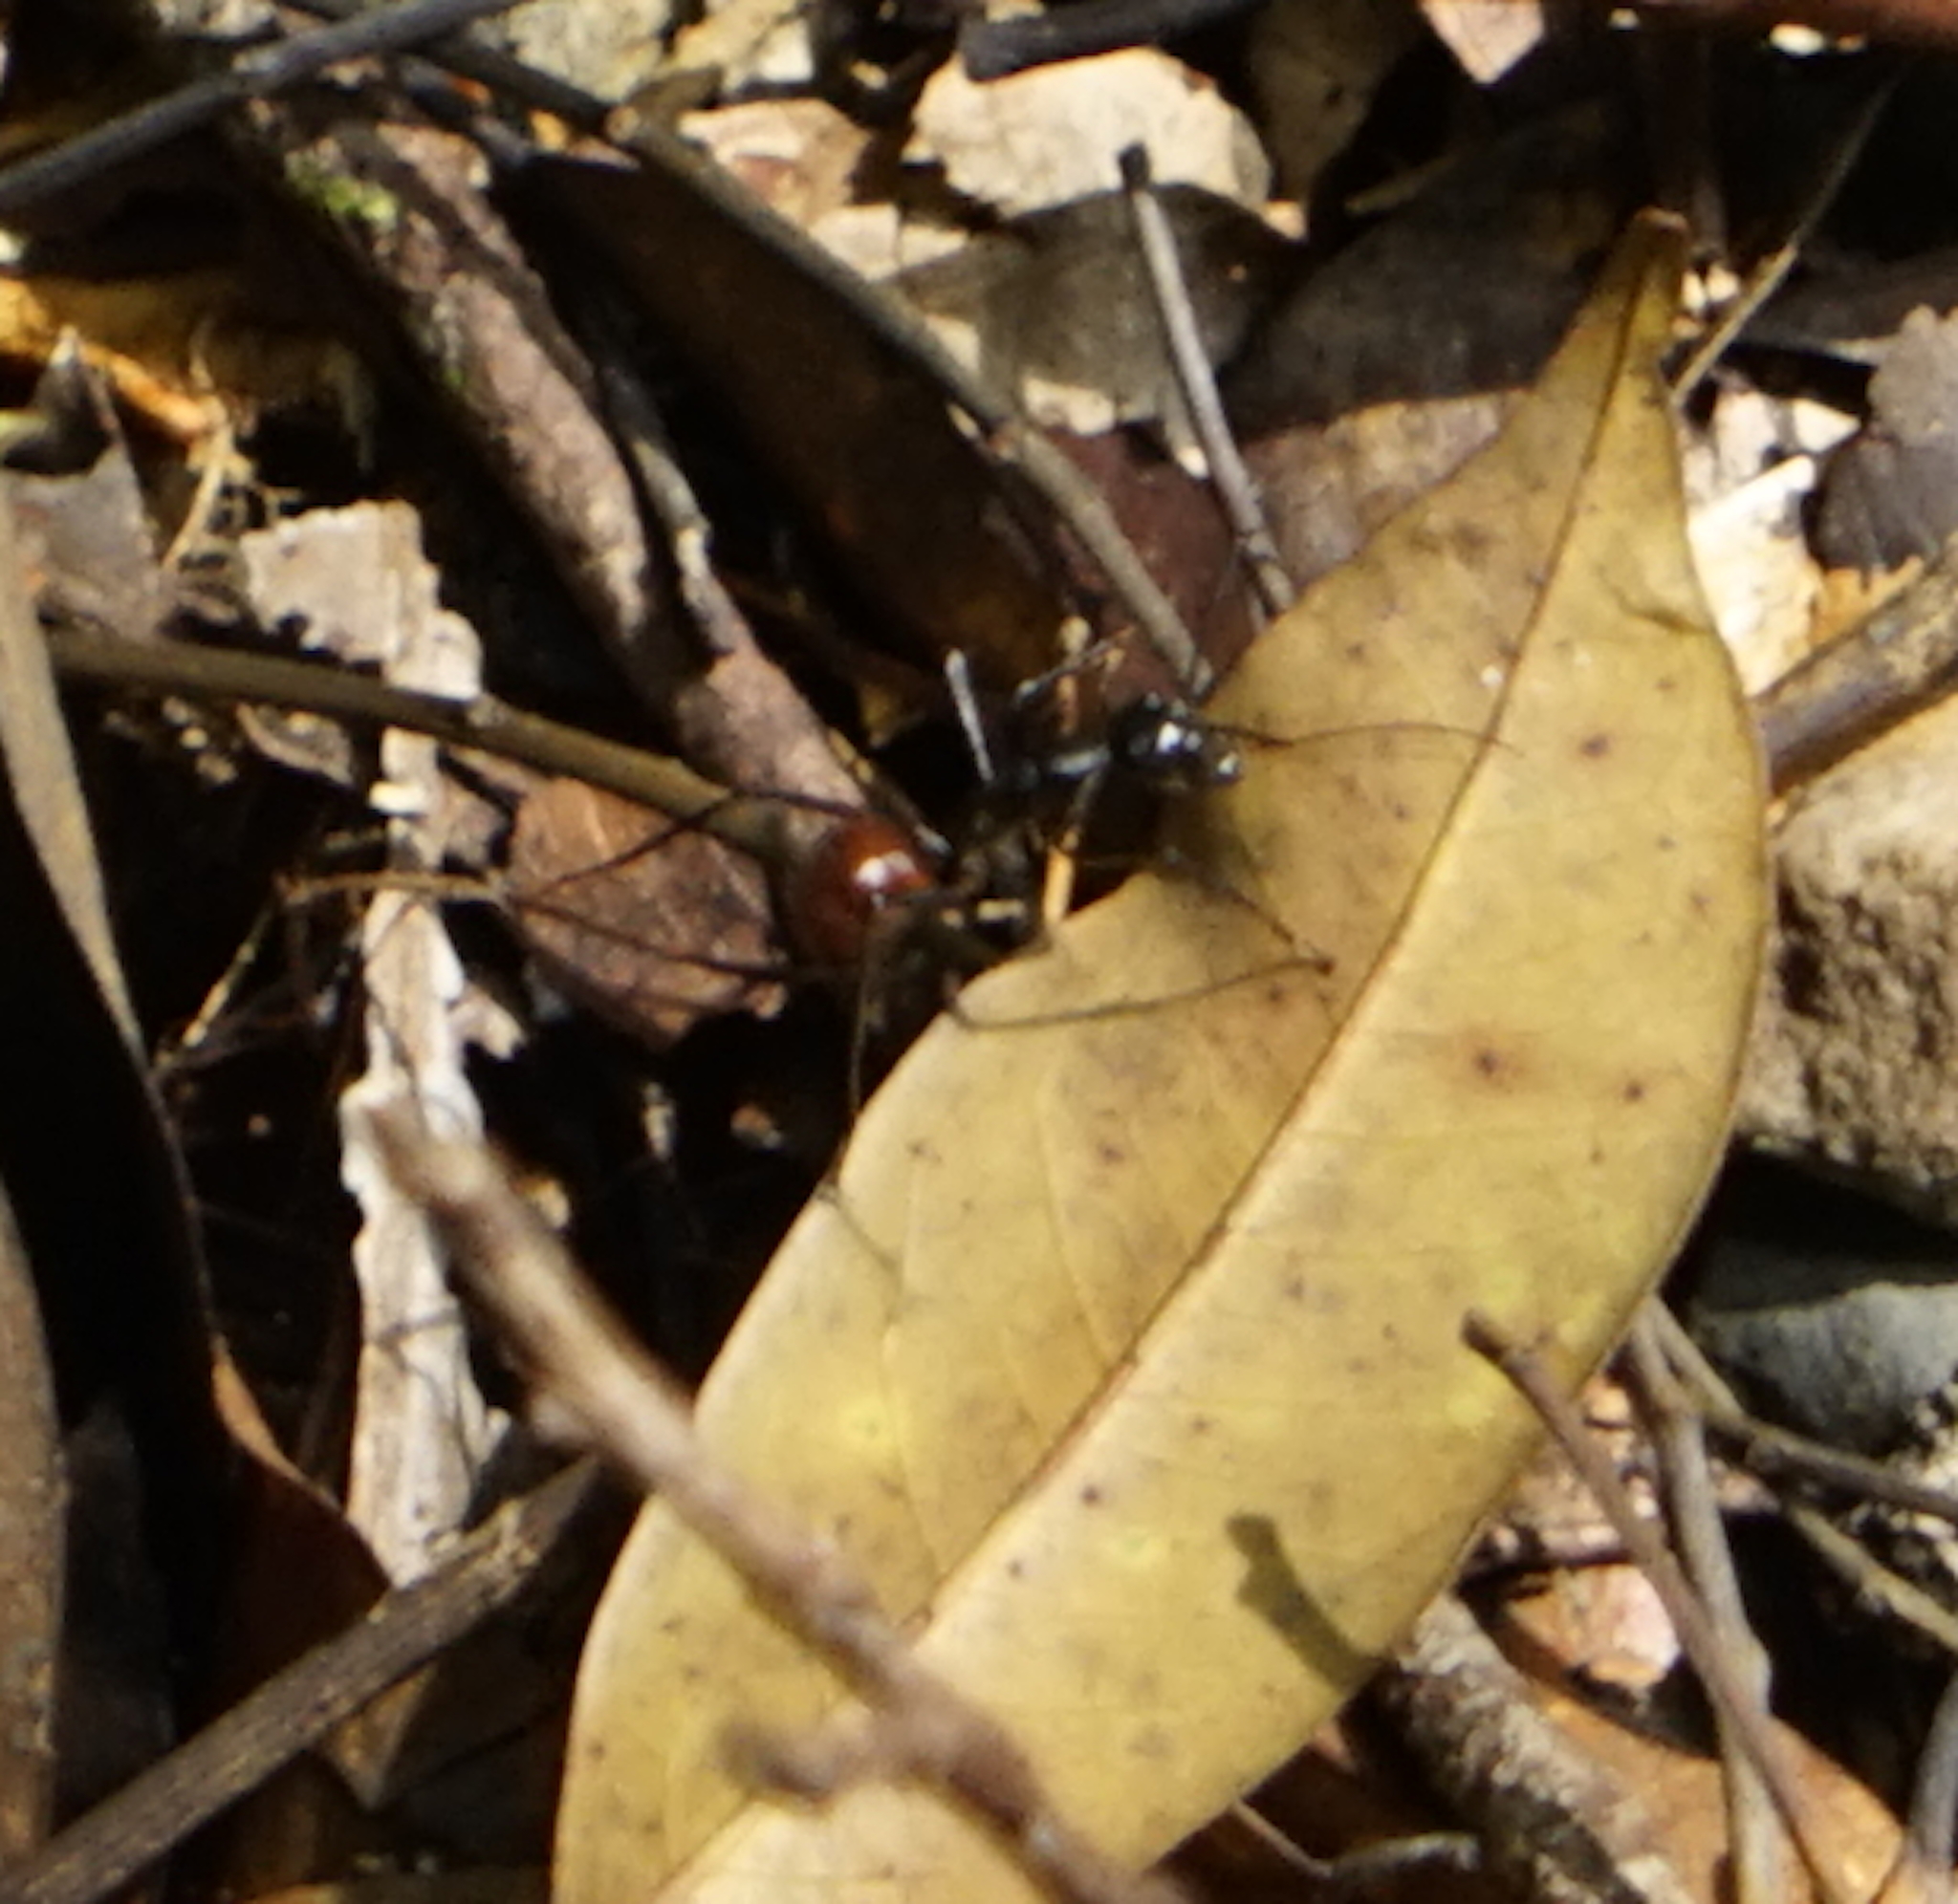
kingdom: Animalia
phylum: Arthropoda
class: Insecta
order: Hymenoptera
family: Formicidae
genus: Dinomyrmex
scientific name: Dinomyrmex
